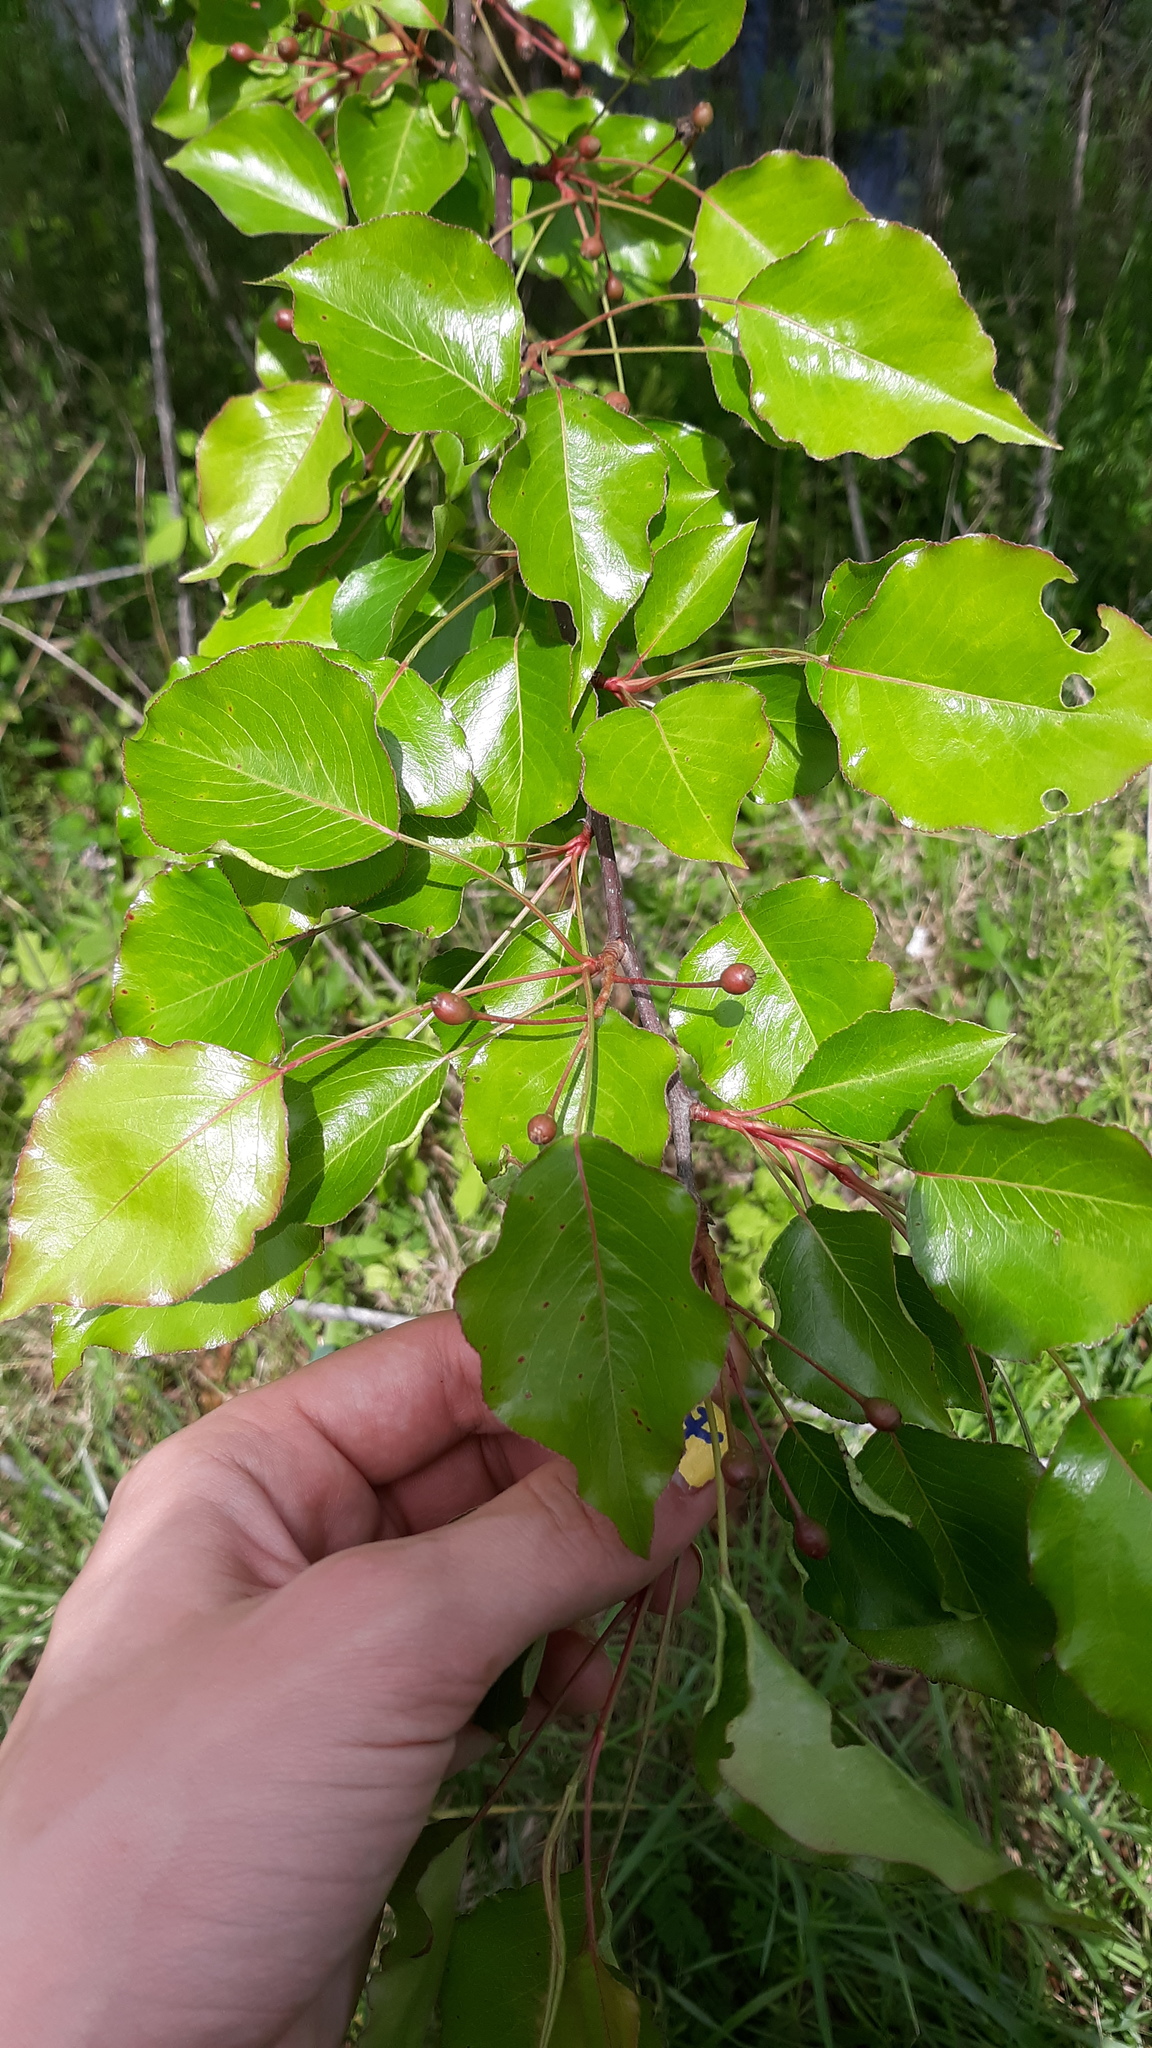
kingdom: Plantae
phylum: Tracheophyta
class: Magnoliopsida
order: Rosales
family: Rosaceae
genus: Pyrus
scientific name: Pyrus calleryana
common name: Callery pear
